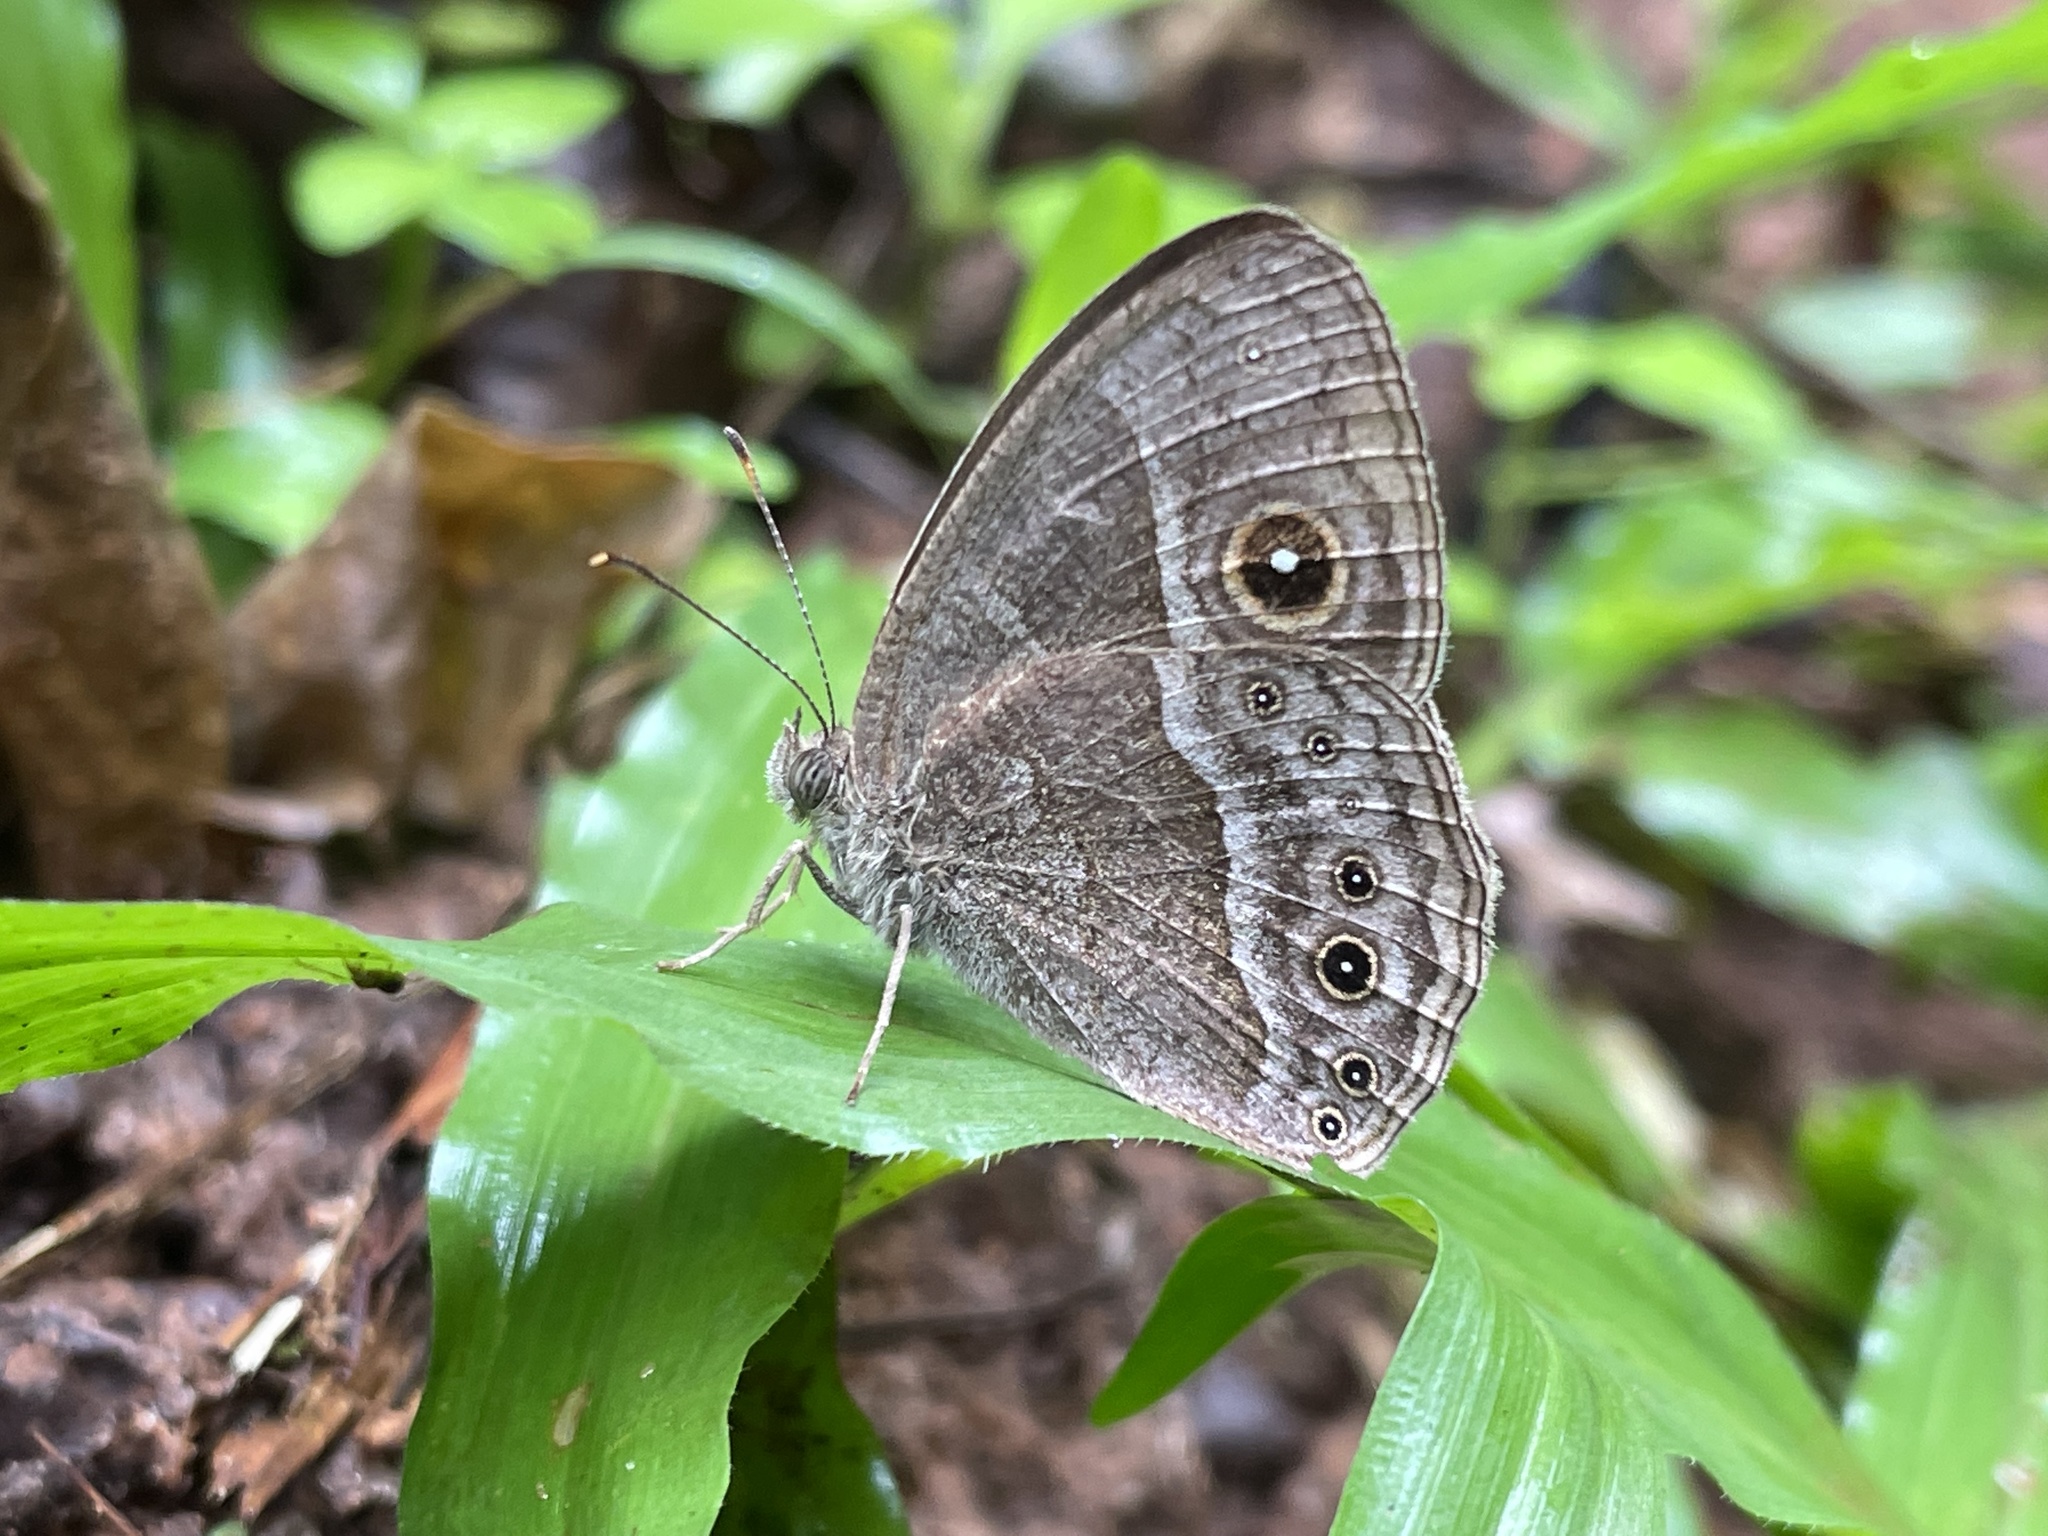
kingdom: Animalia
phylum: Arthropoda
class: Insecta
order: Lepidoptera
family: Nymphalidae
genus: Mycalesis
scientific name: Mycalesis anynana
